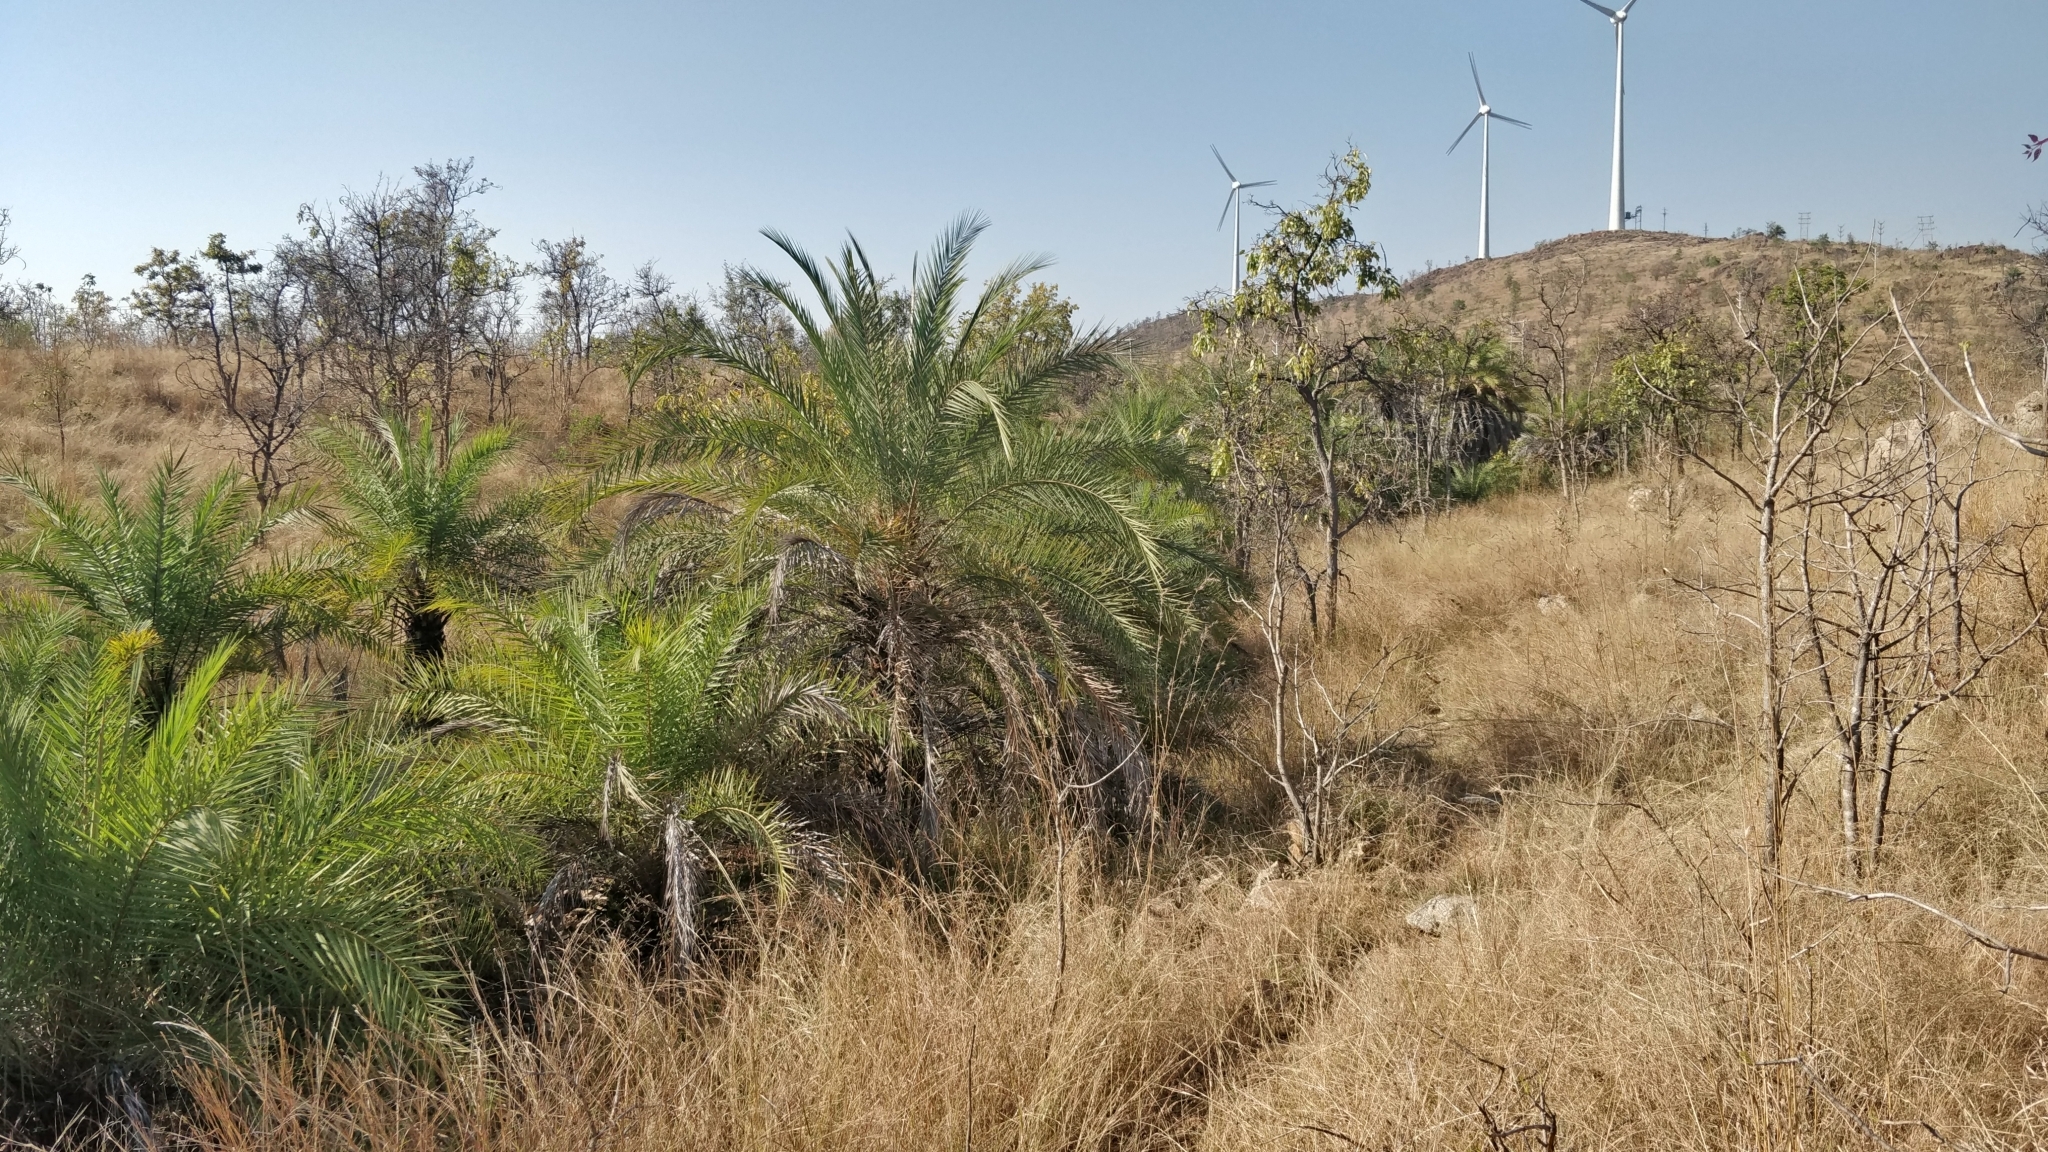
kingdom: Plantae
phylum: Tracheophyta
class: Liliopsida
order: Arecales
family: Arecaceae
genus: Phoenix
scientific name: Phoenix sylvestris
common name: Wild date palm
